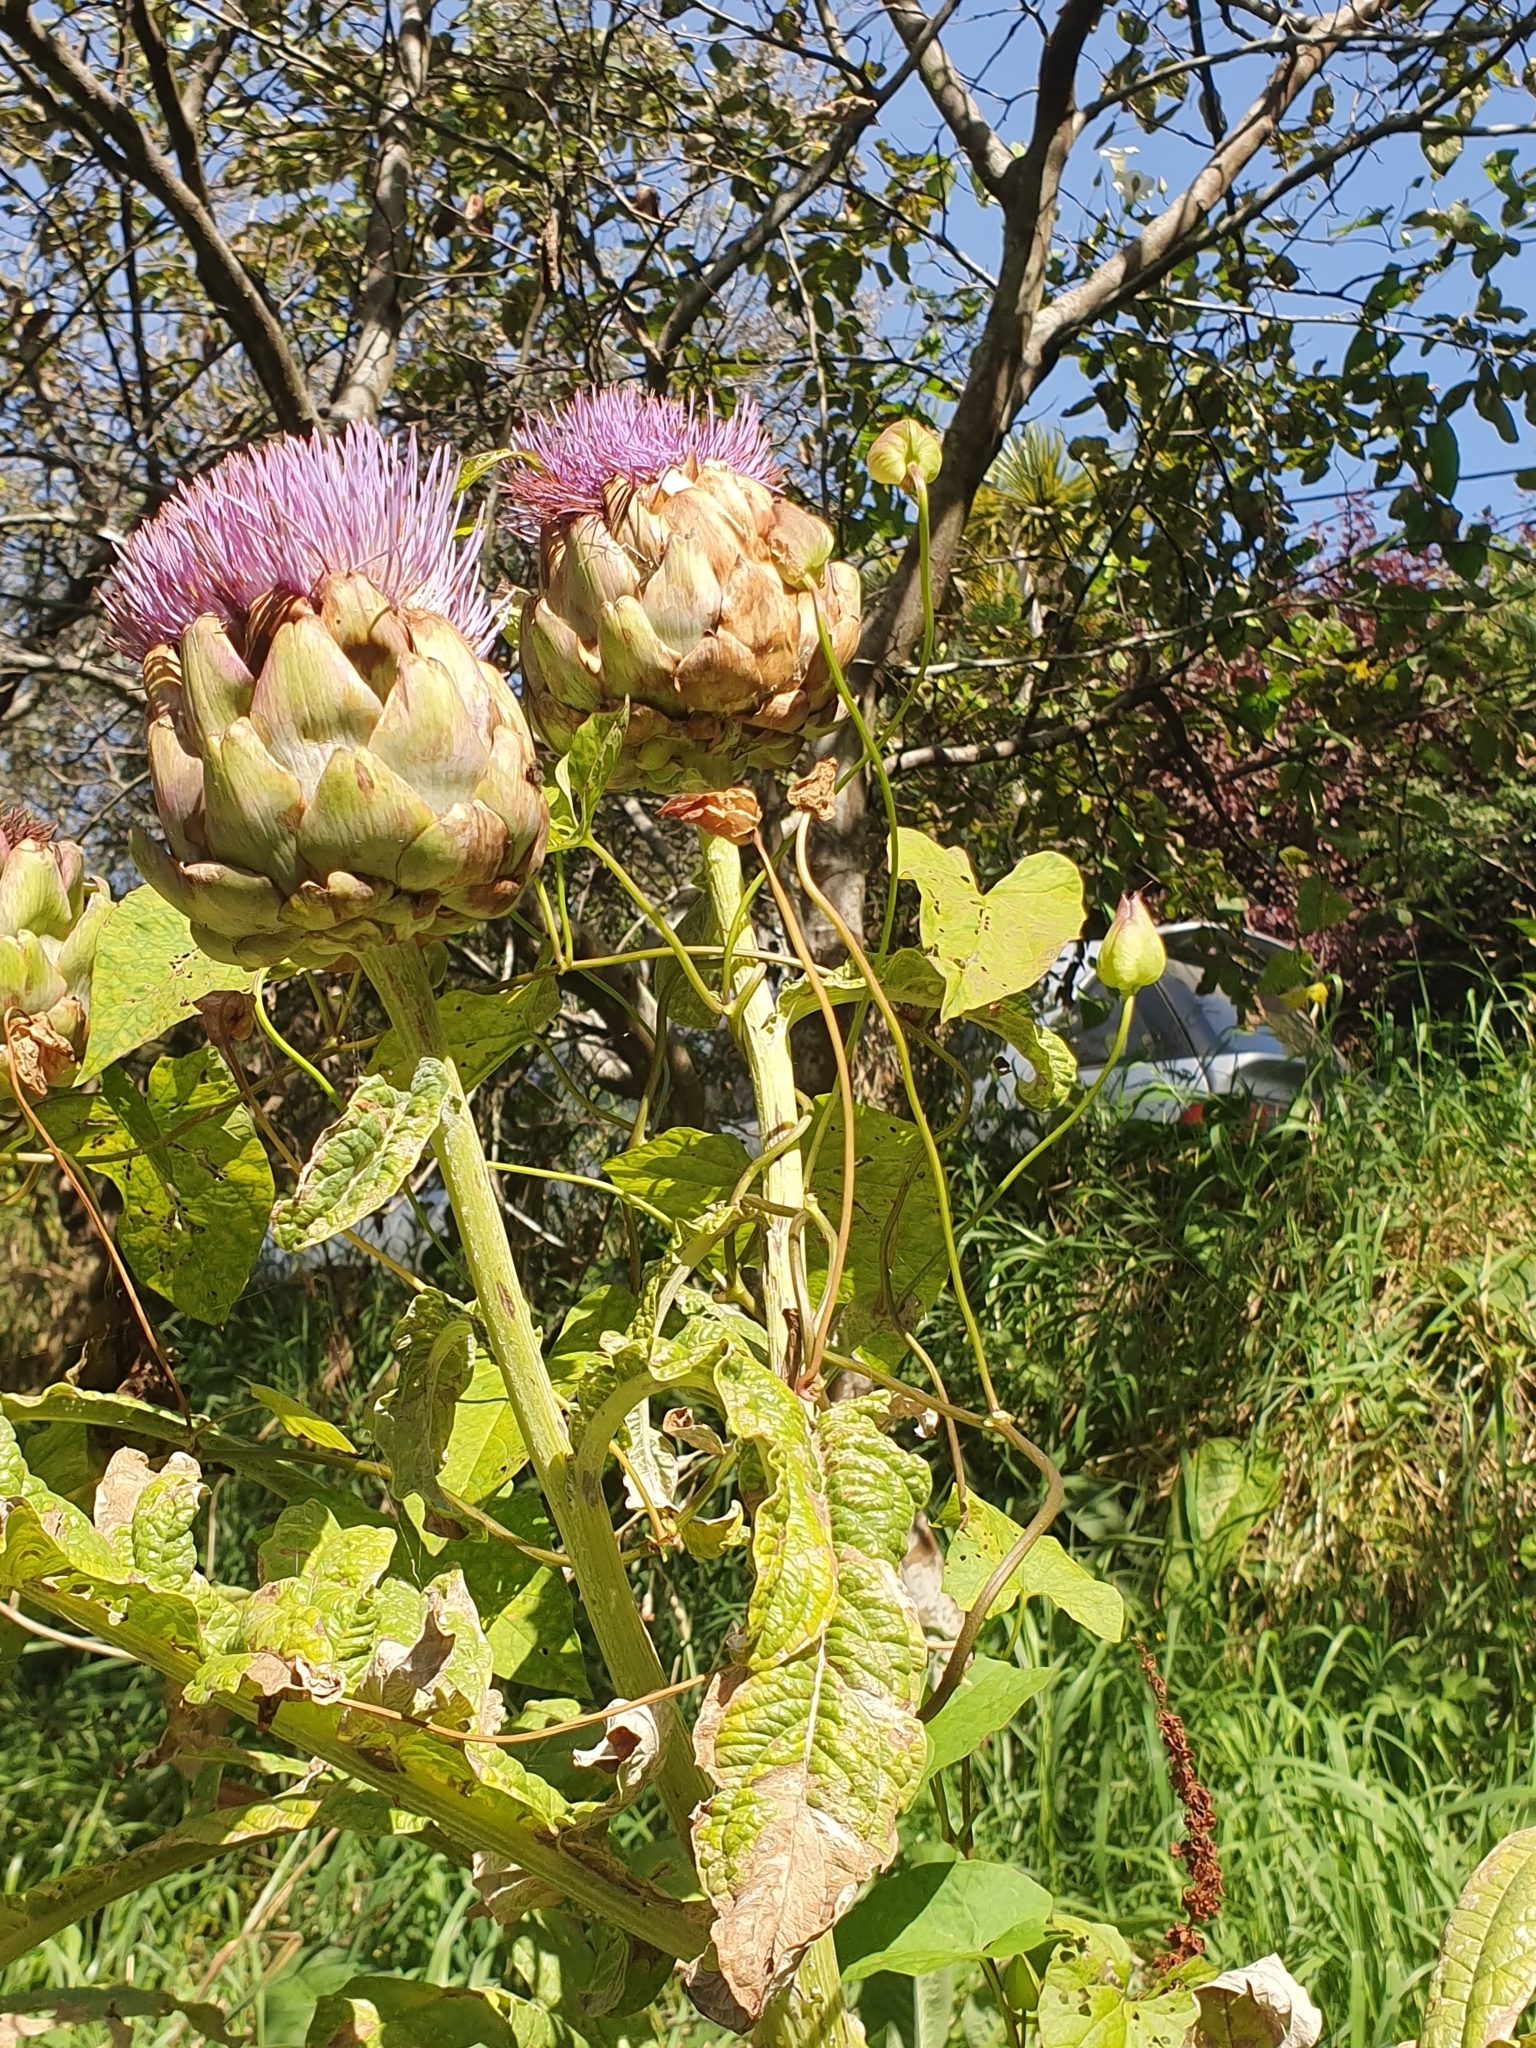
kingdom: Plantae
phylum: Tracheophyta
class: Magnoliopsida
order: Asterales
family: Asteraceae
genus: Cynara
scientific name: Cynara cardunculus
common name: Globe artichoke
